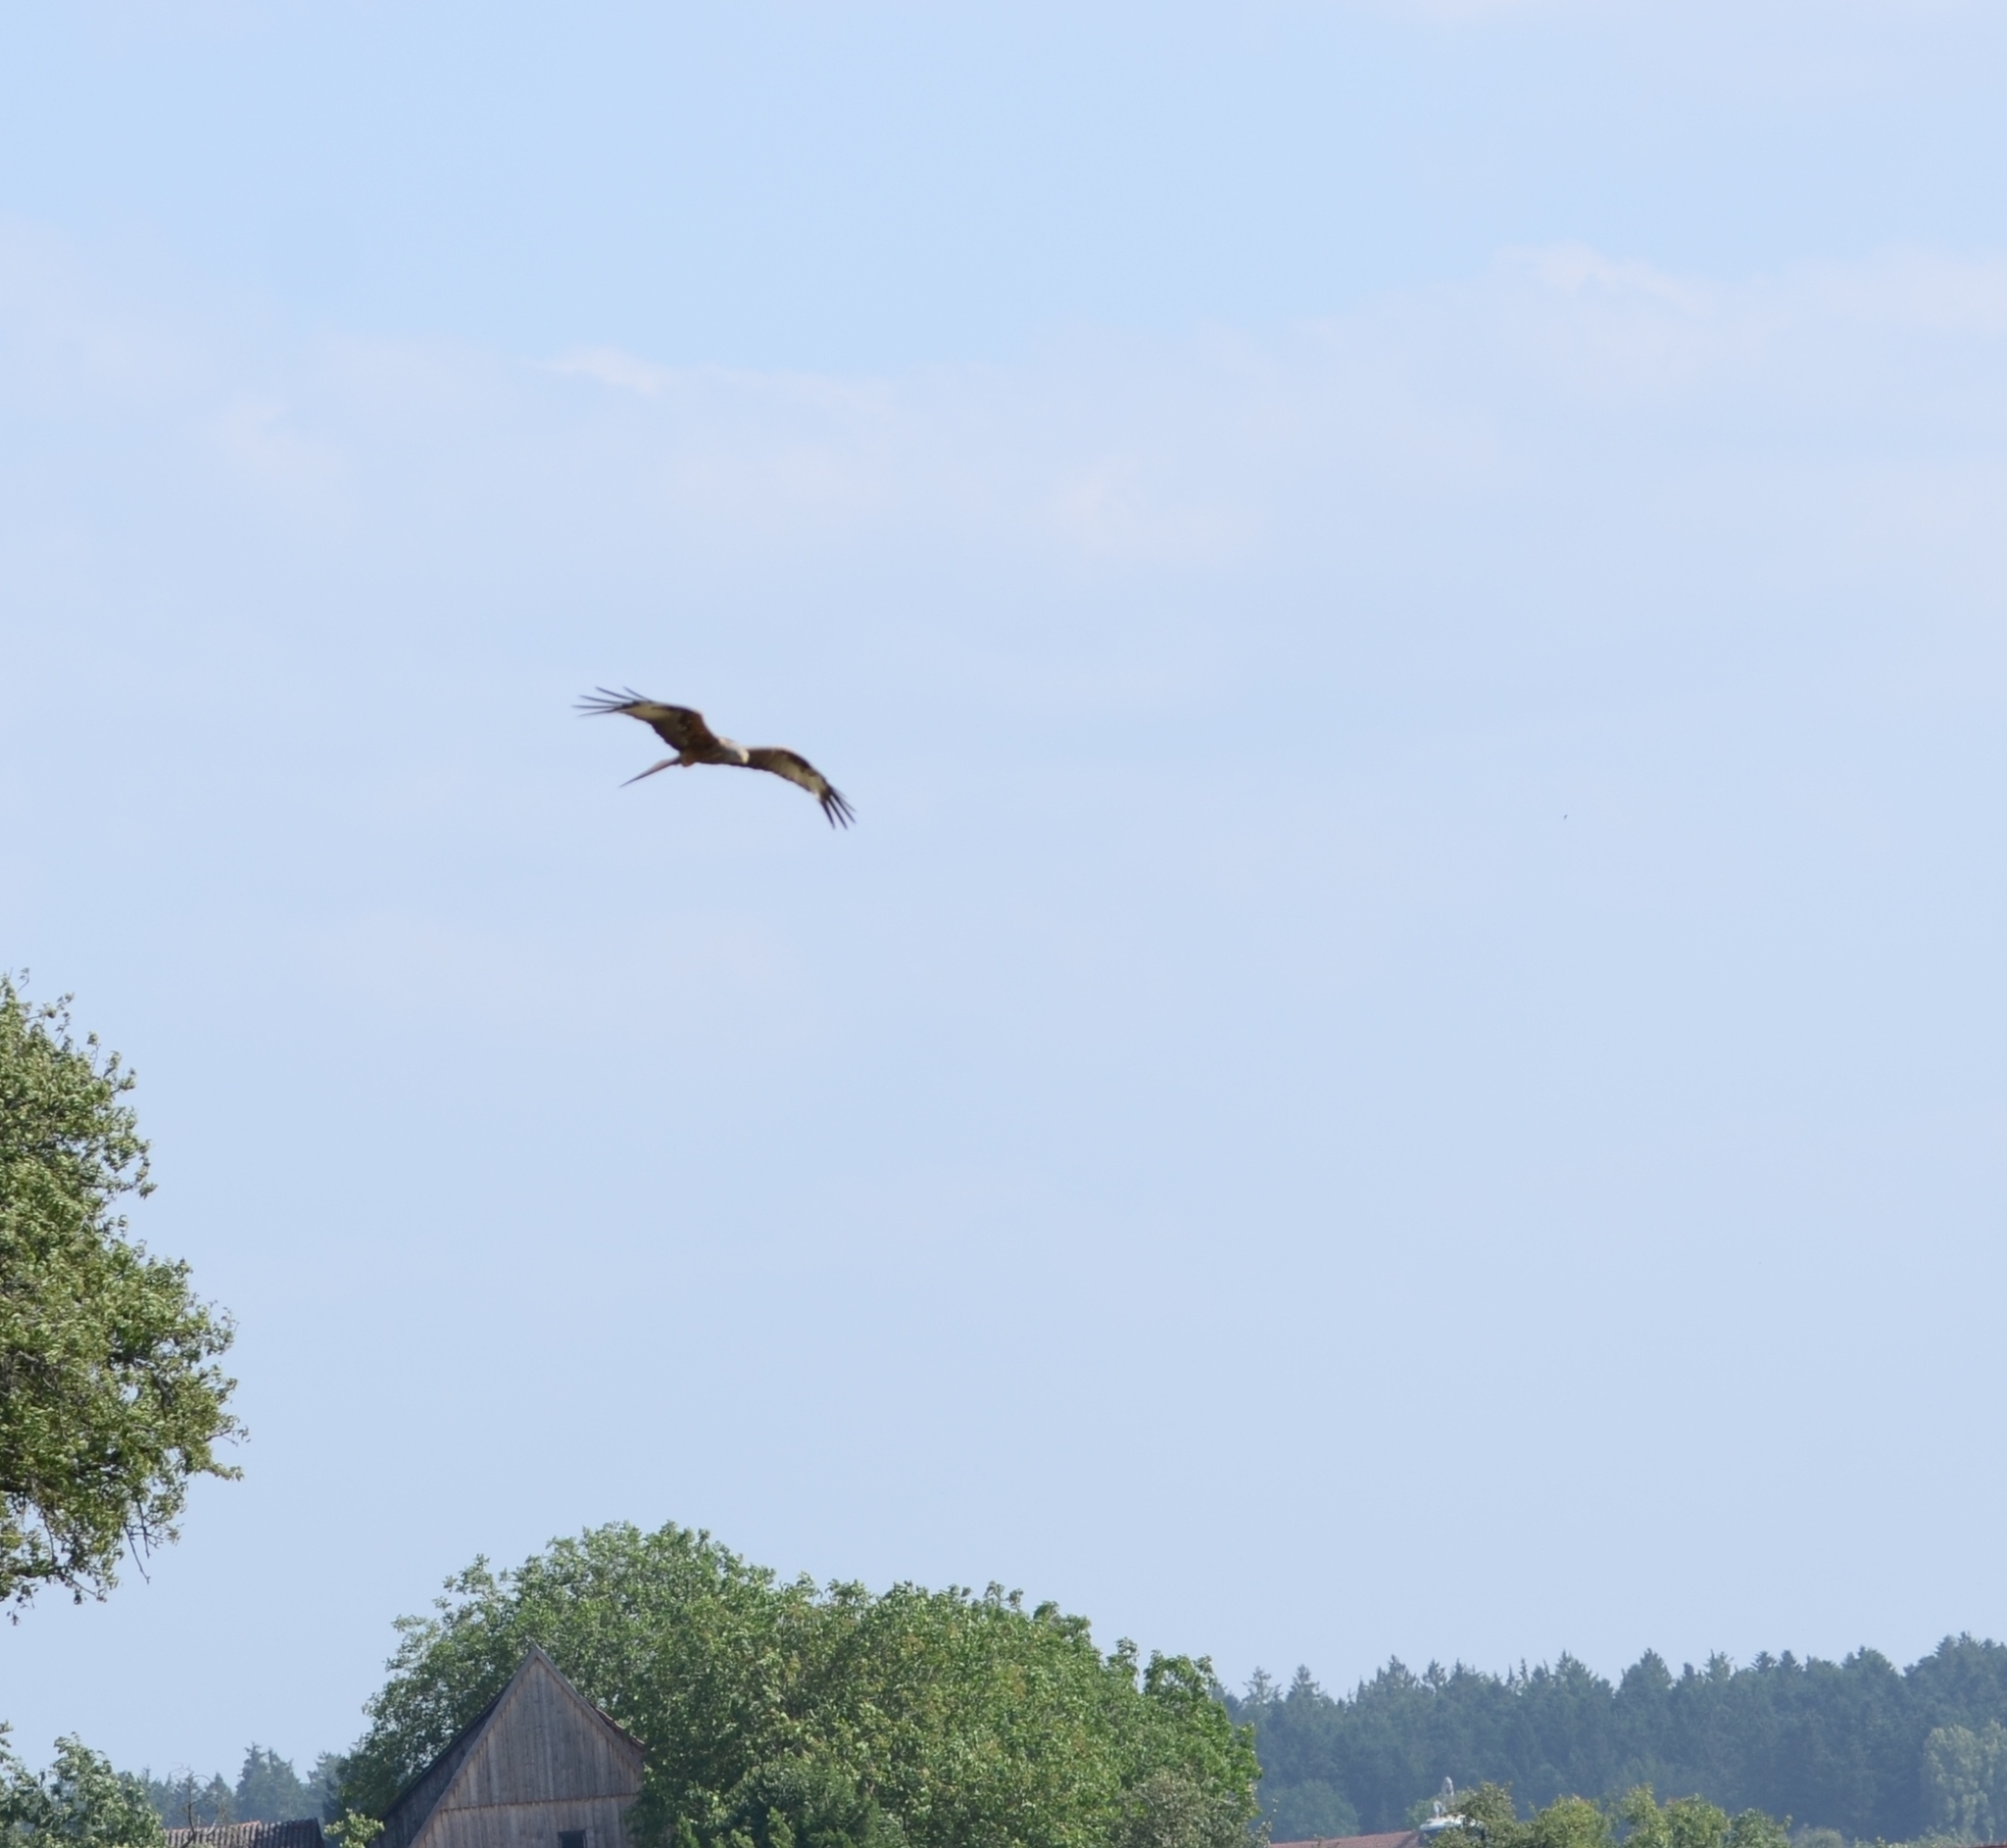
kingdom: Animalia
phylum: Chordata
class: Aves
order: Accipitriformes
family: Accipitridae
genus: Milvus
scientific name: Milvus milvus
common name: Red kite
